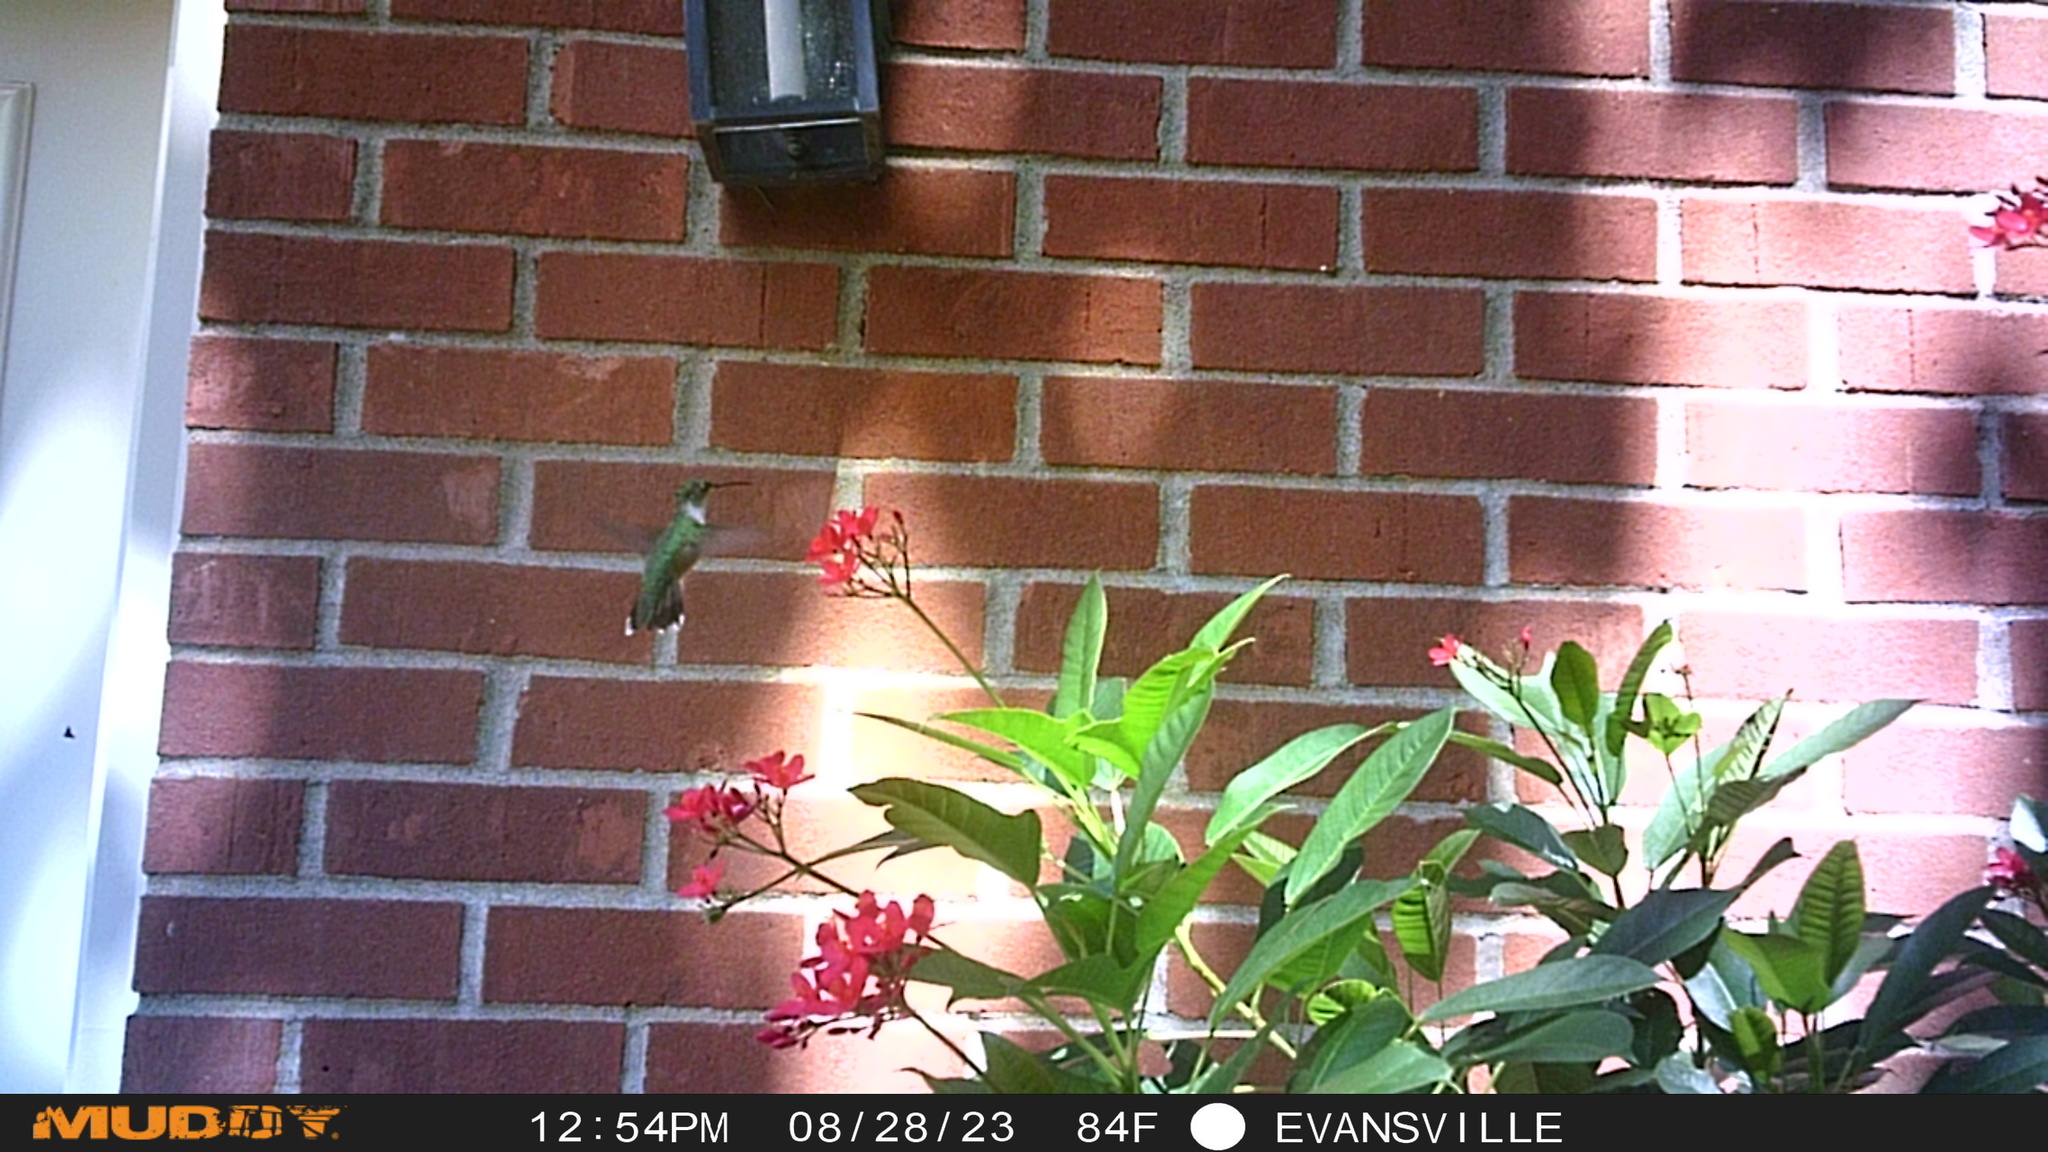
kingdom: Animalia
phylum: Chordata
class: Aves
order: Apodiformes
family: Trochilidae
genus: Archilochus
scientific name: Archilochus colubris
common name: Ruby-throated hummingbird
